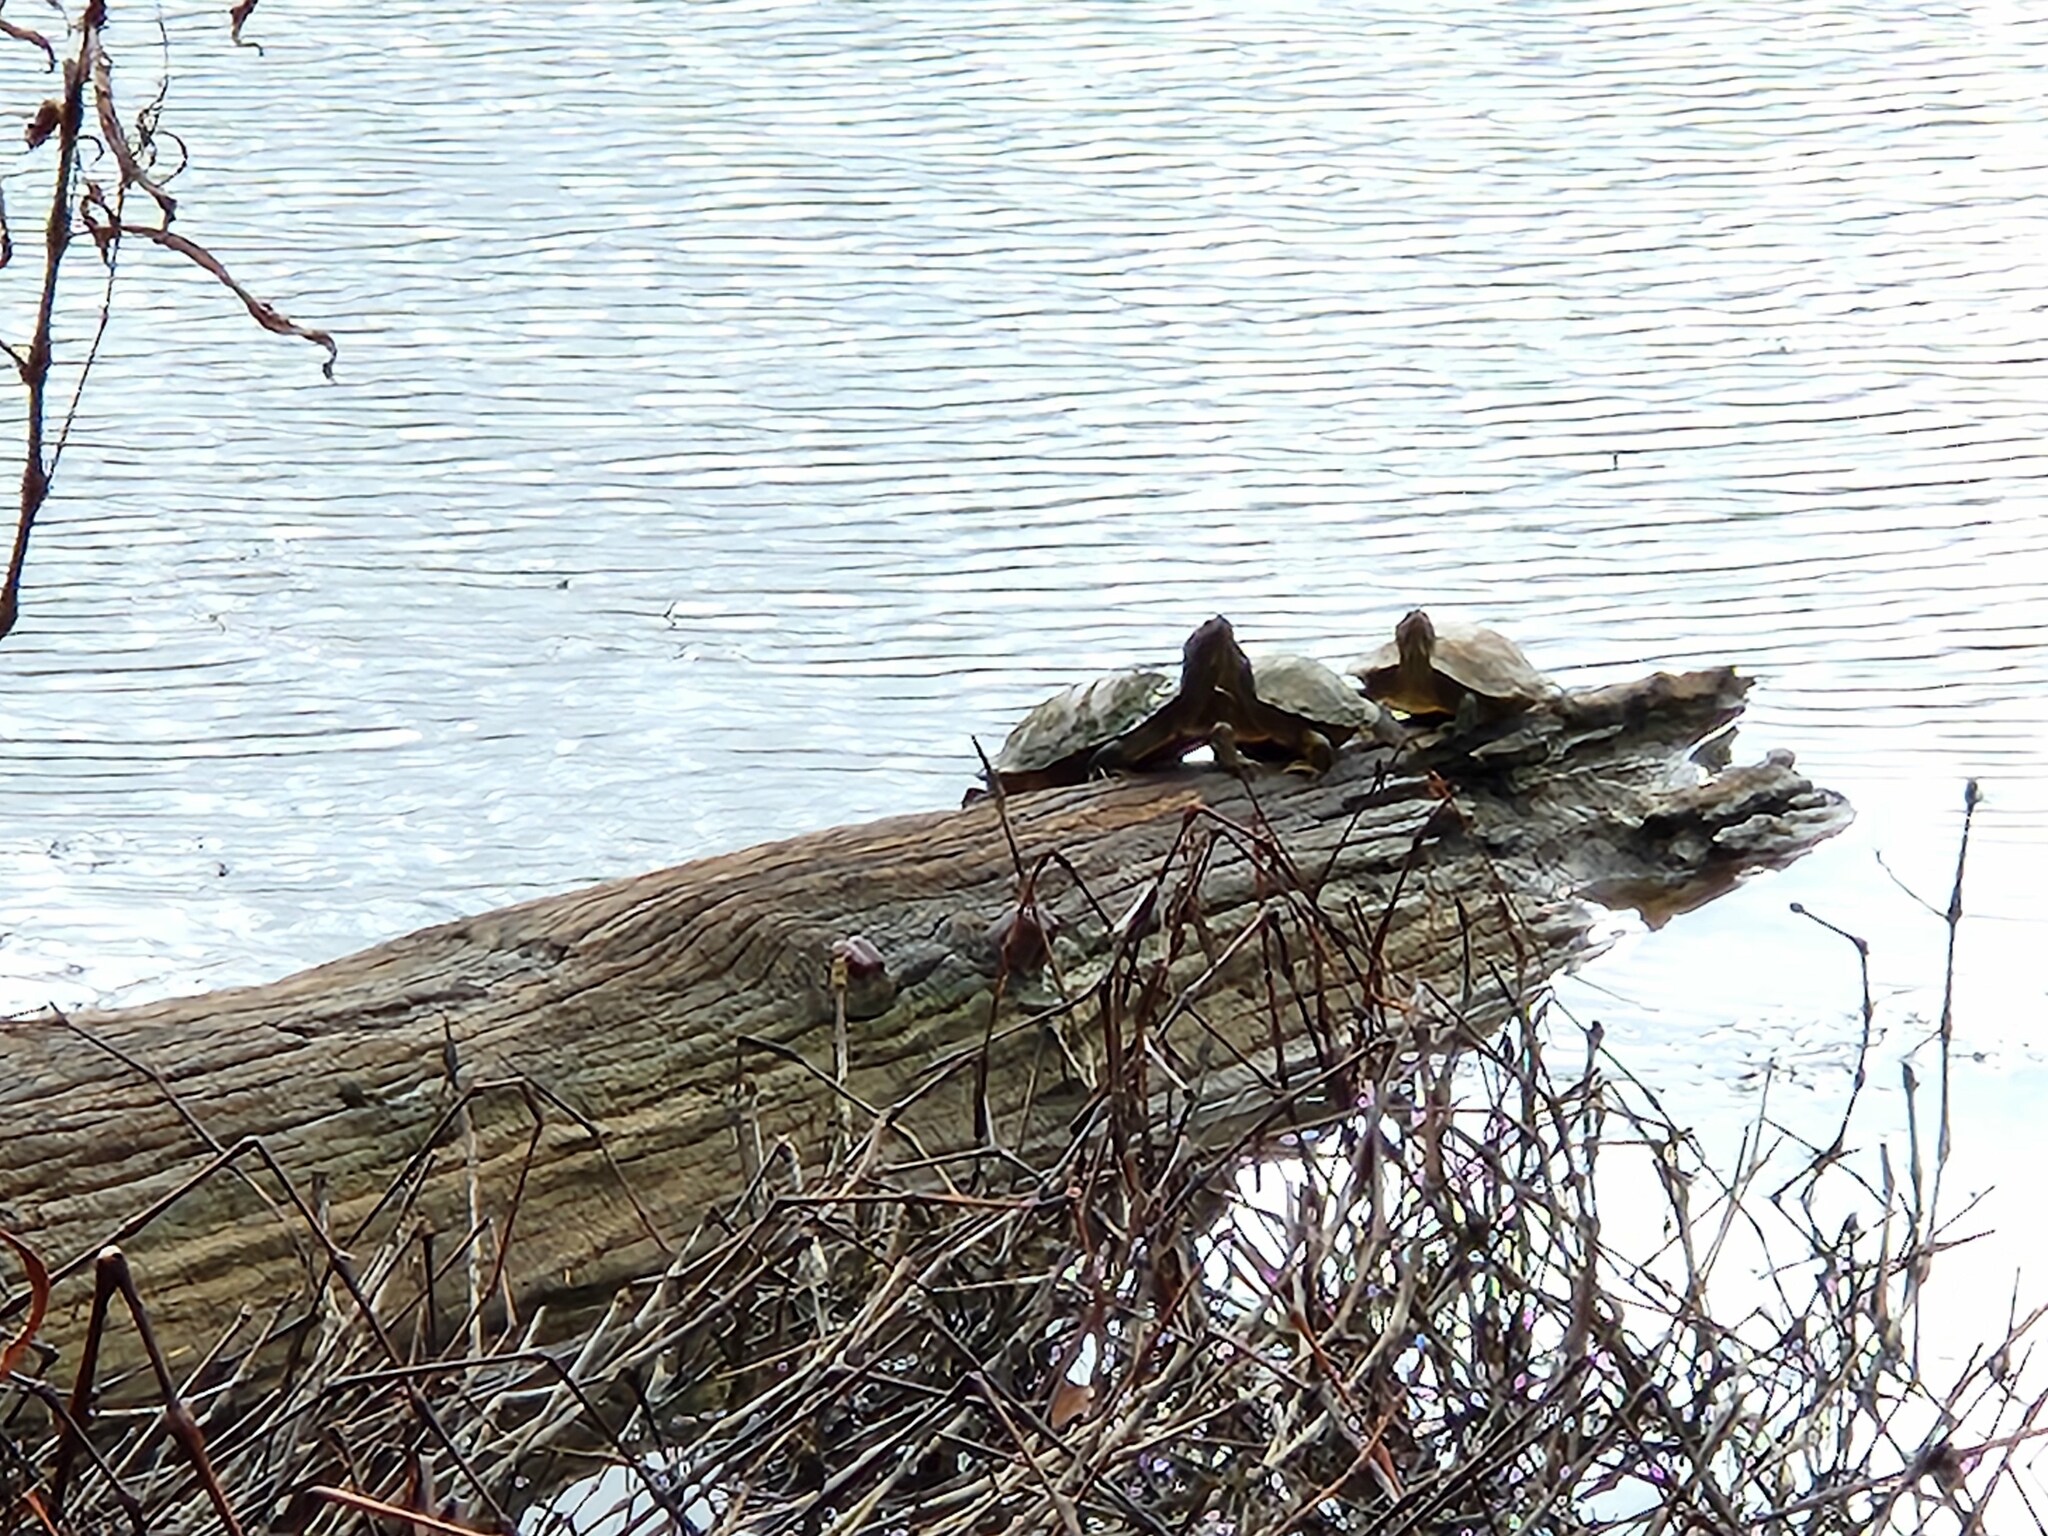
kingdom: Animalia
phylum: Chordata
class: Testudines
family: Emydidae
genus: Trachemys
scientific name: Trachemys scripta
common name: Slider
